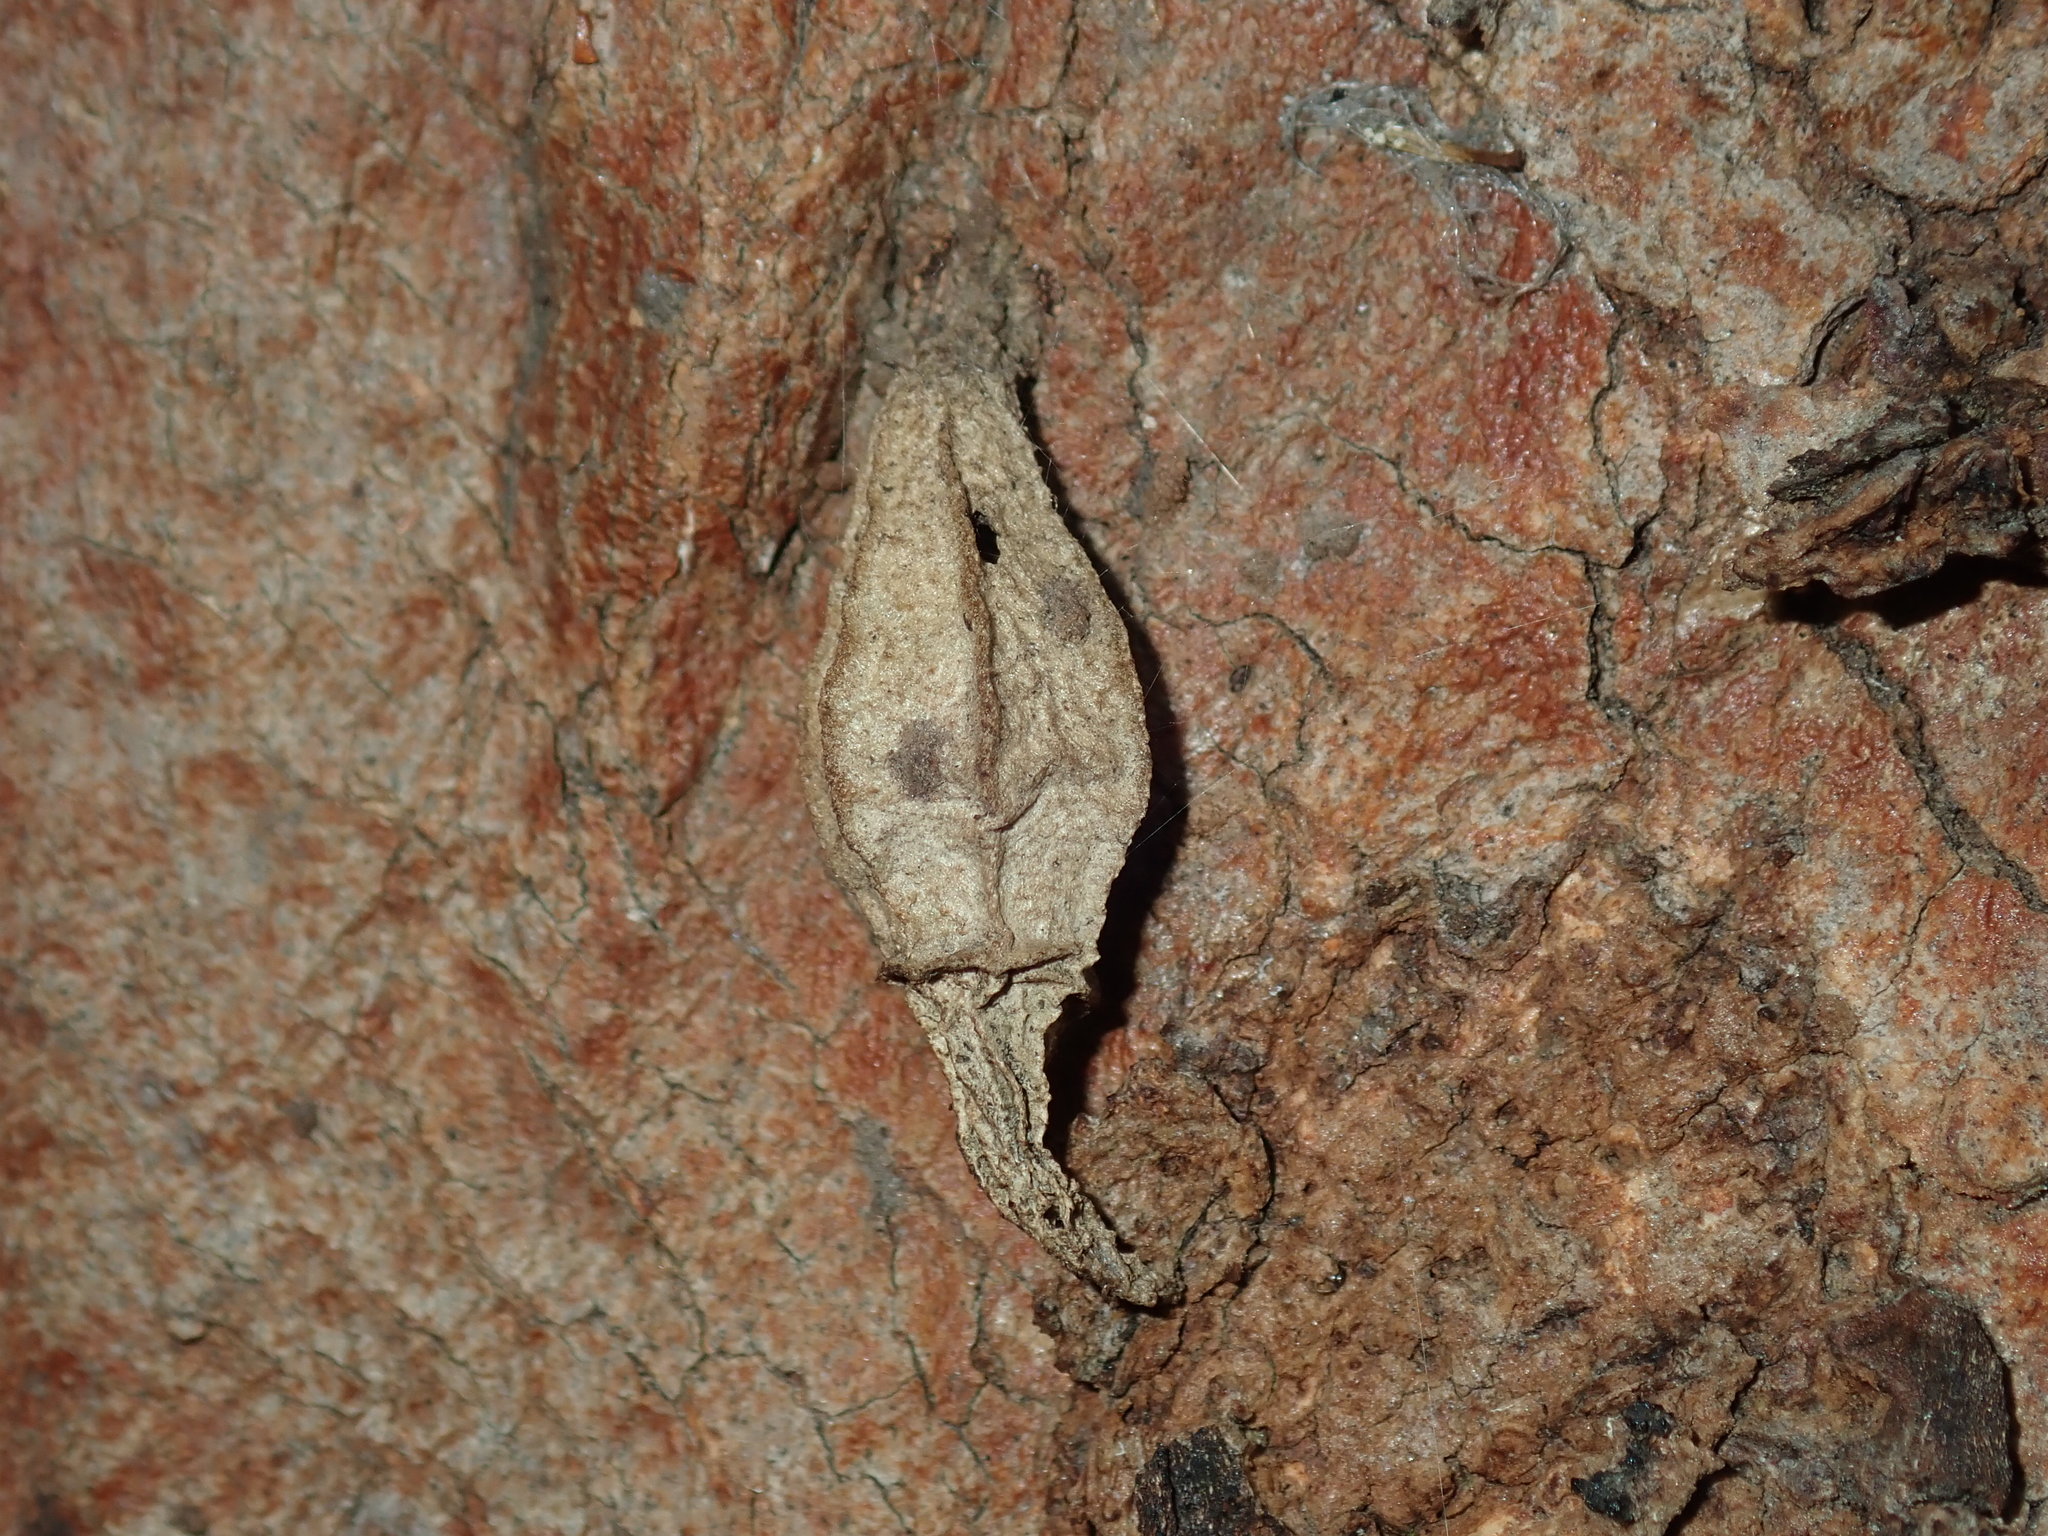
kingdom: Animalia
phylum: Arthropoda
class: Insecta
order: Lepidoptera
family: Psychidae
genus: Hyalarcta
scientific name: Hyalarcta nigrescens
